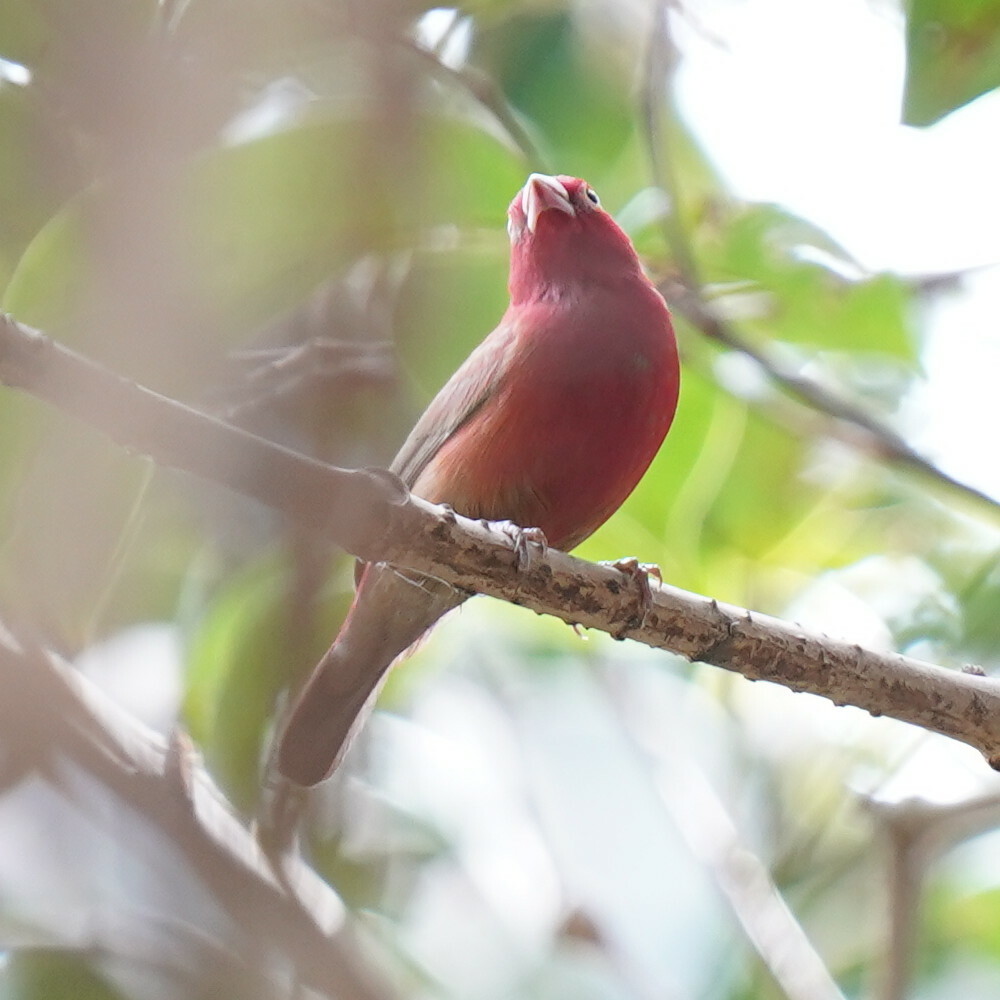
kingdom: Animalia
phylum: Chordata
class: Aves
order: Passeriformes
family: Estrildidae
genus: Lagonosticta
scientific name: Lagonosticta senegala
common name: Red-billed firefinch
